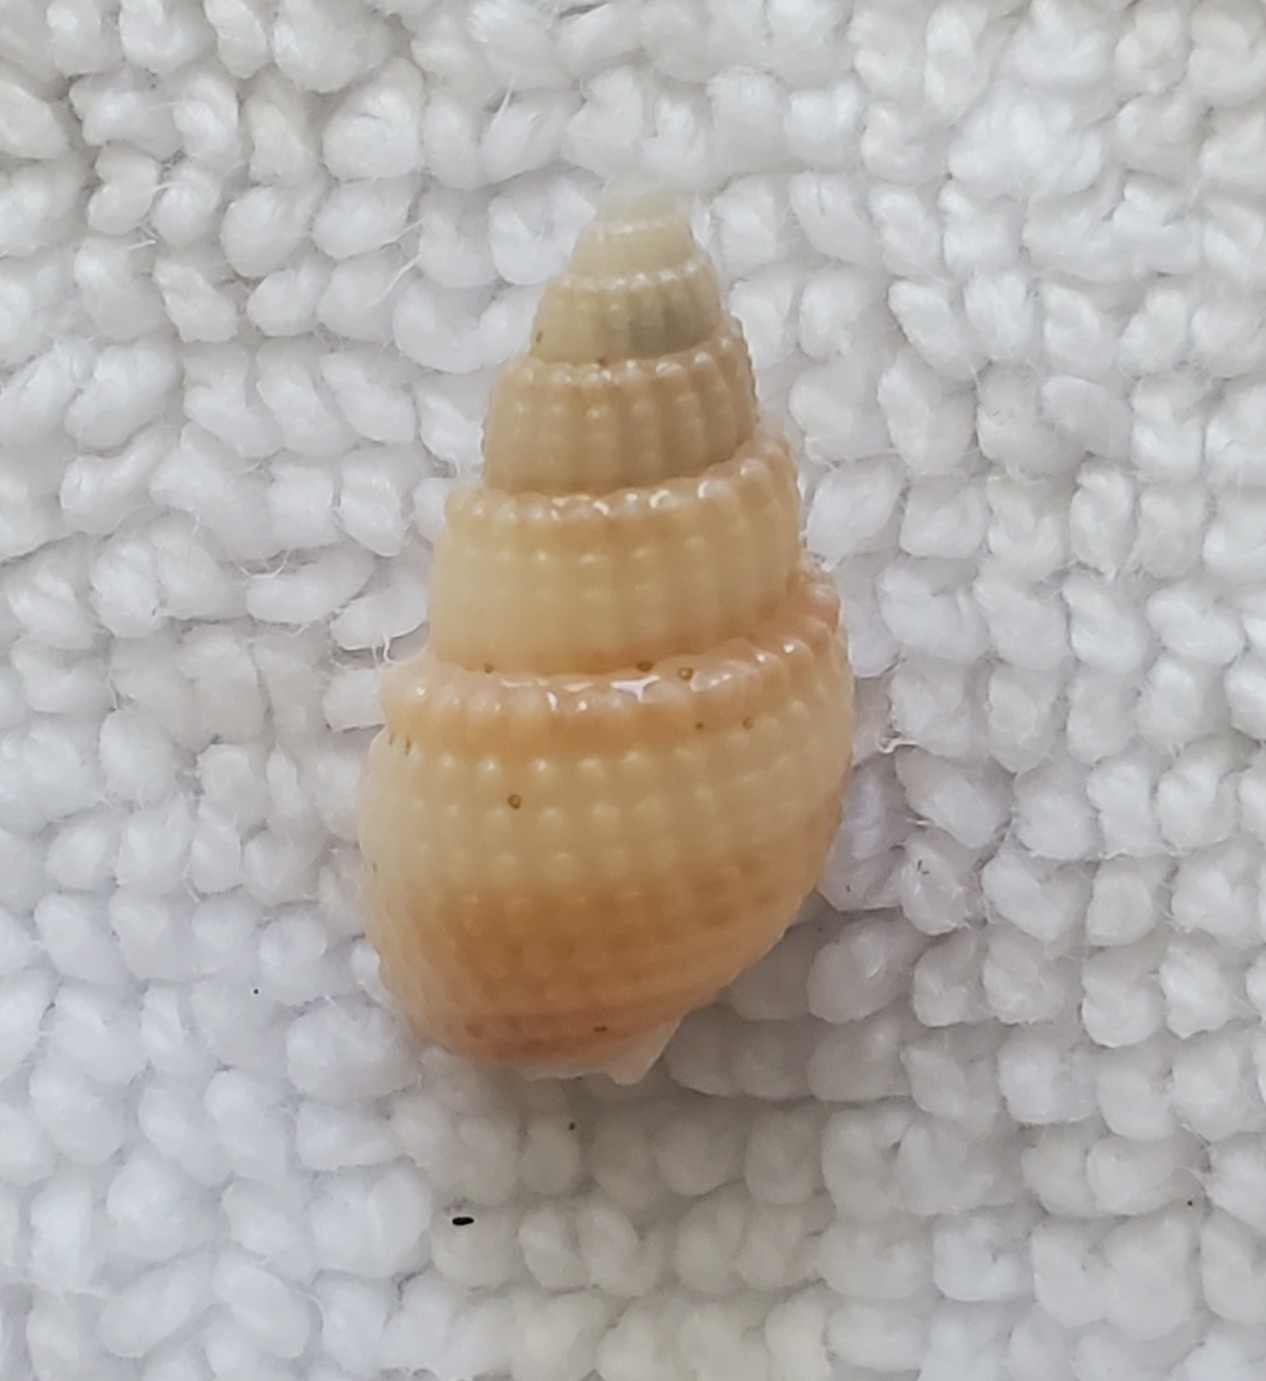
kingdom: Animalia
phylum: Mollusca
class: Gastropoda
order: Neogastropoda
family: Nassariidae
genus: Ilyanassa
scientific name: Ilyanassa trivittata
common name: Three-line mudsnail
